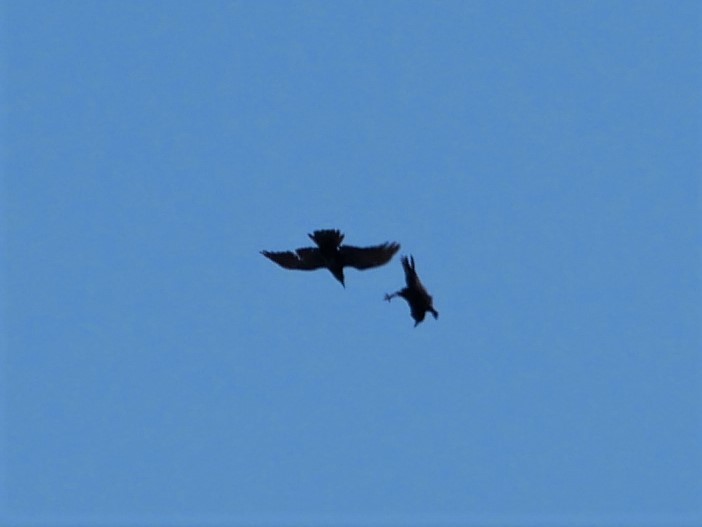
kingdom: Animalia
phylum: Chordata
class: Aves
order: Passeriformes
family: Corvidae
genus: Corvus
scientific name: Corvus corax
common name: Common raven
